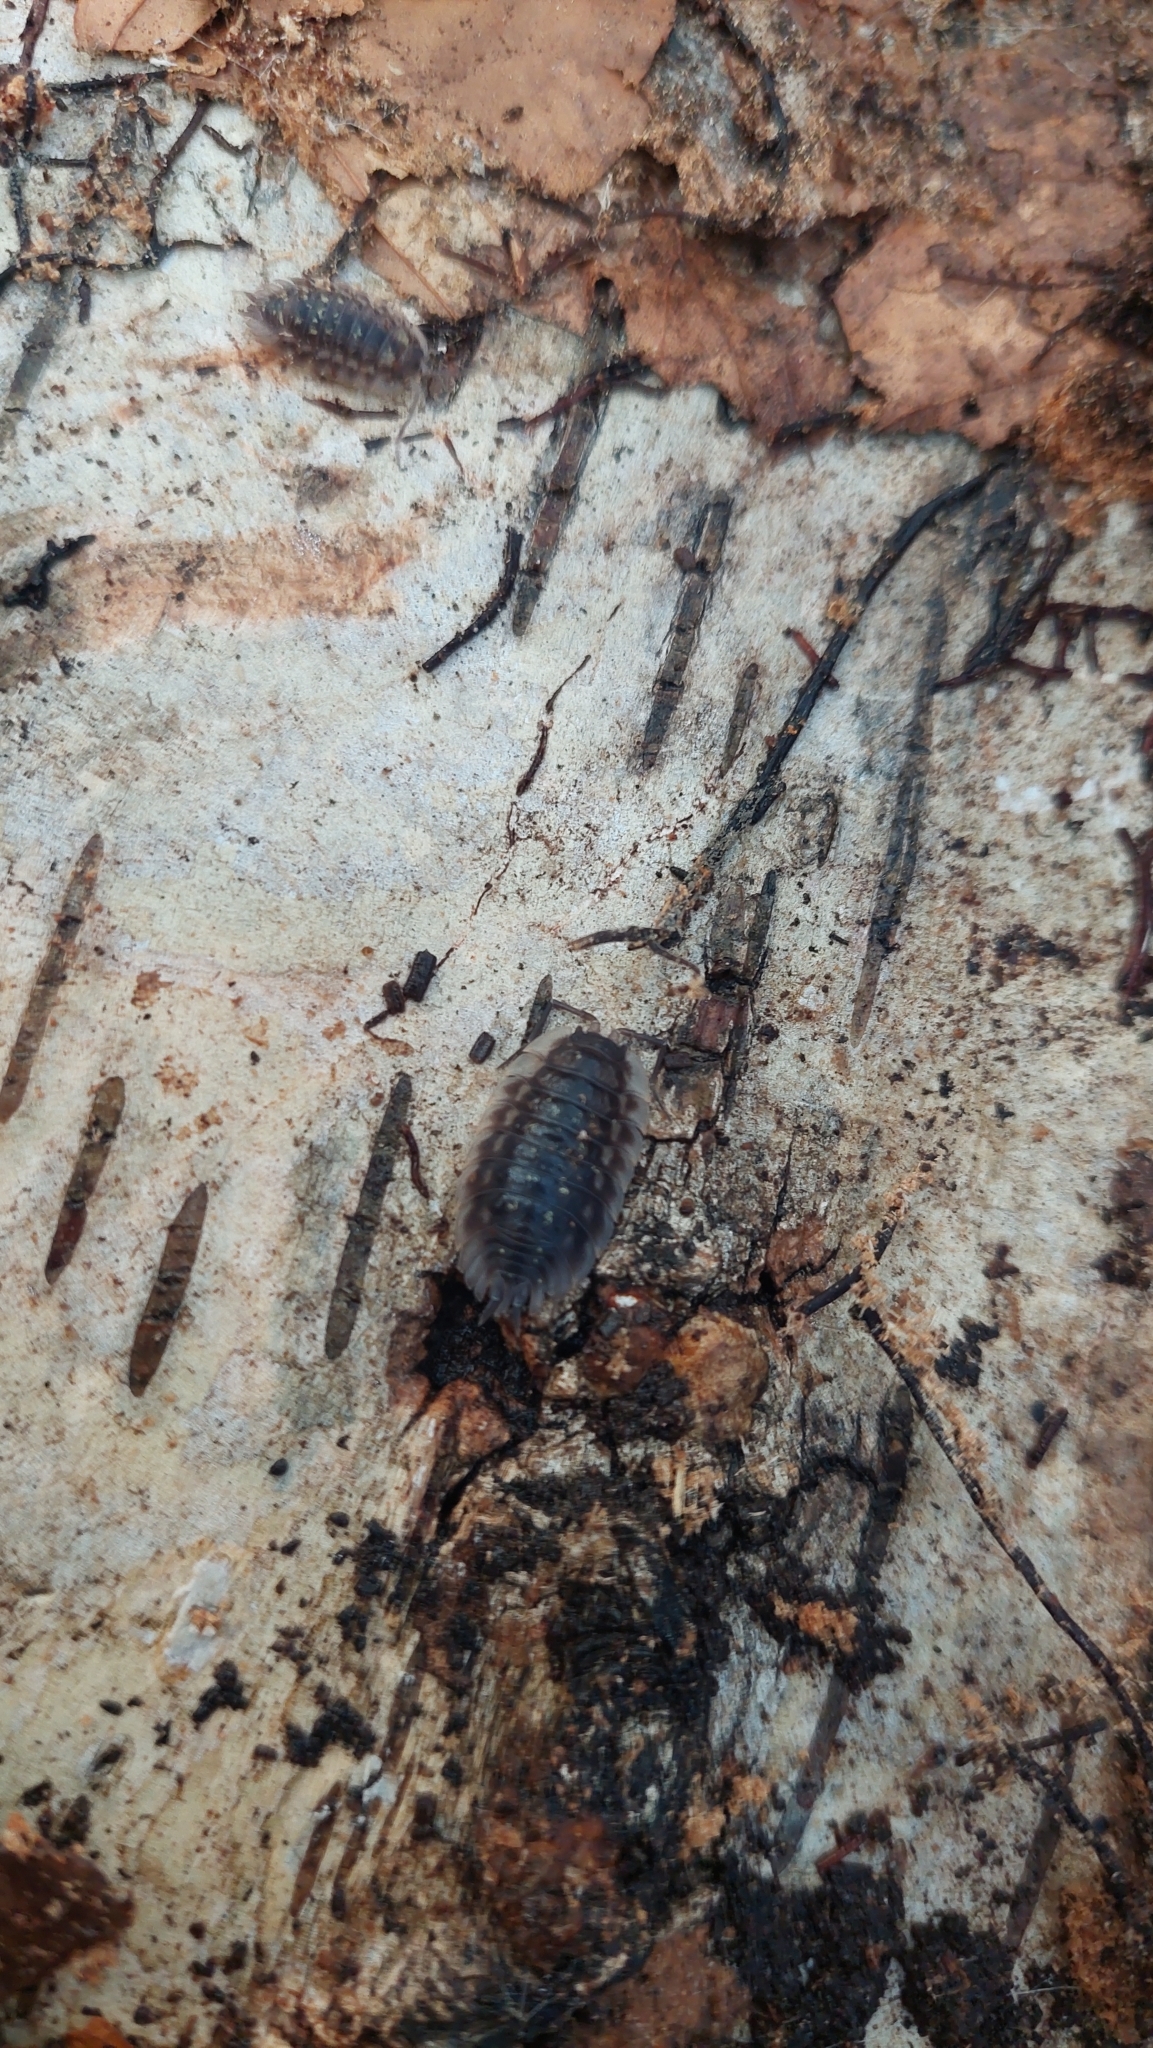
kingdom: Animalia
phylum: Arthropoda
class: Malacostraca
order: Isopoda
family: Oniscidae
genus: Oniscus
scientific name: Oniscus asellus
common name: Common shiny woodlouse
